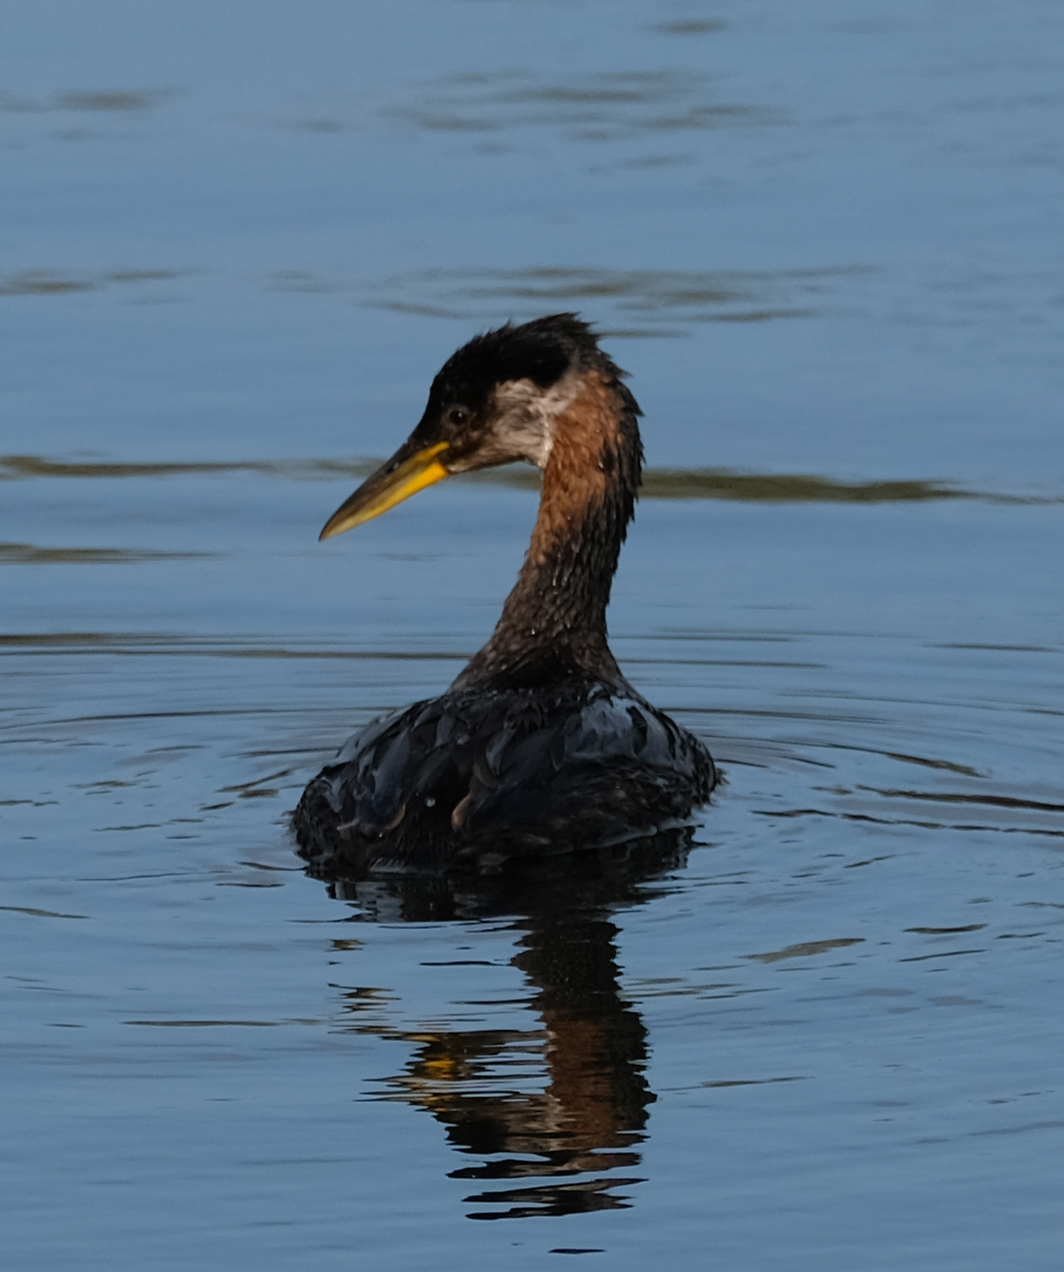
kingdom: Animalia
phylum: Chordata
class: Aves
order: Podicipediformes
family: Podicipedidae
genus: Podiceps
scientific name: Podiceps grisegena
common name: Red-necked grebe
